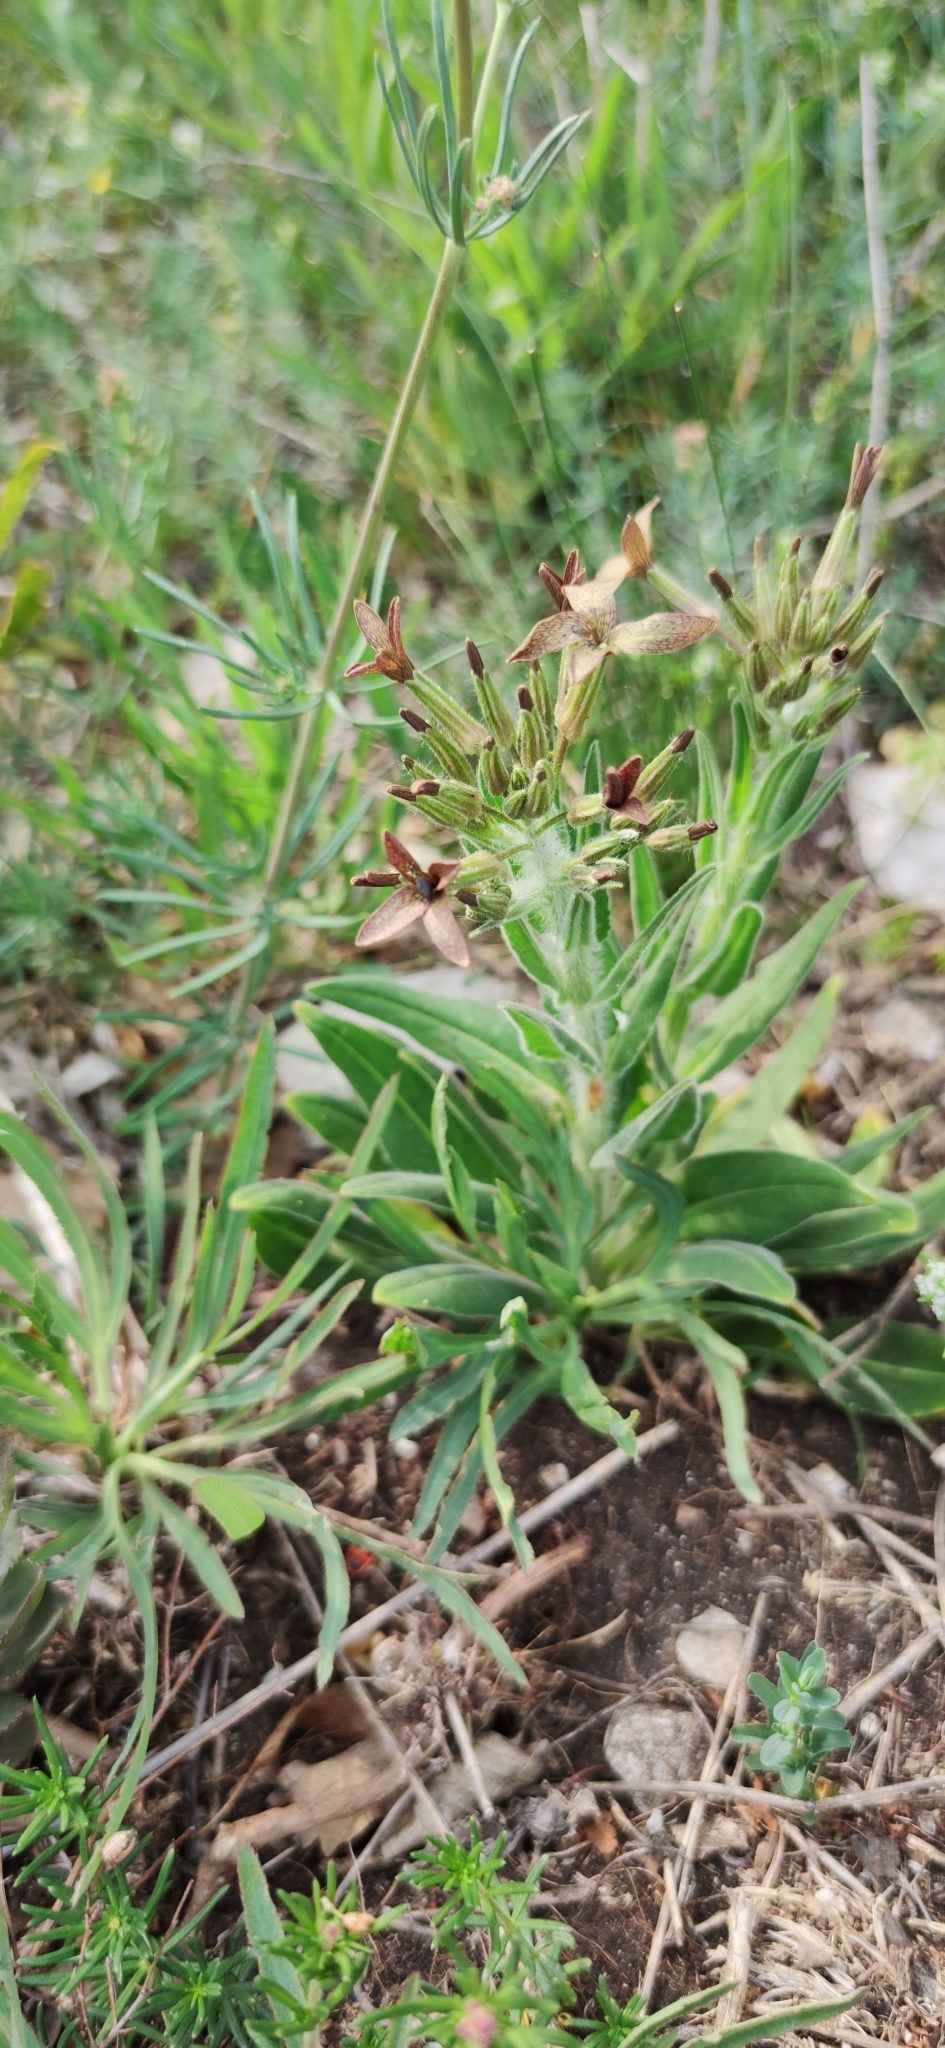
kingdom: Plantae
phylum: Tracheophyta
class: Magnoliopsida
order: Brassicales
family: Brassicaceae
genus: Hesperis
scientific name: Hesperis tristis
